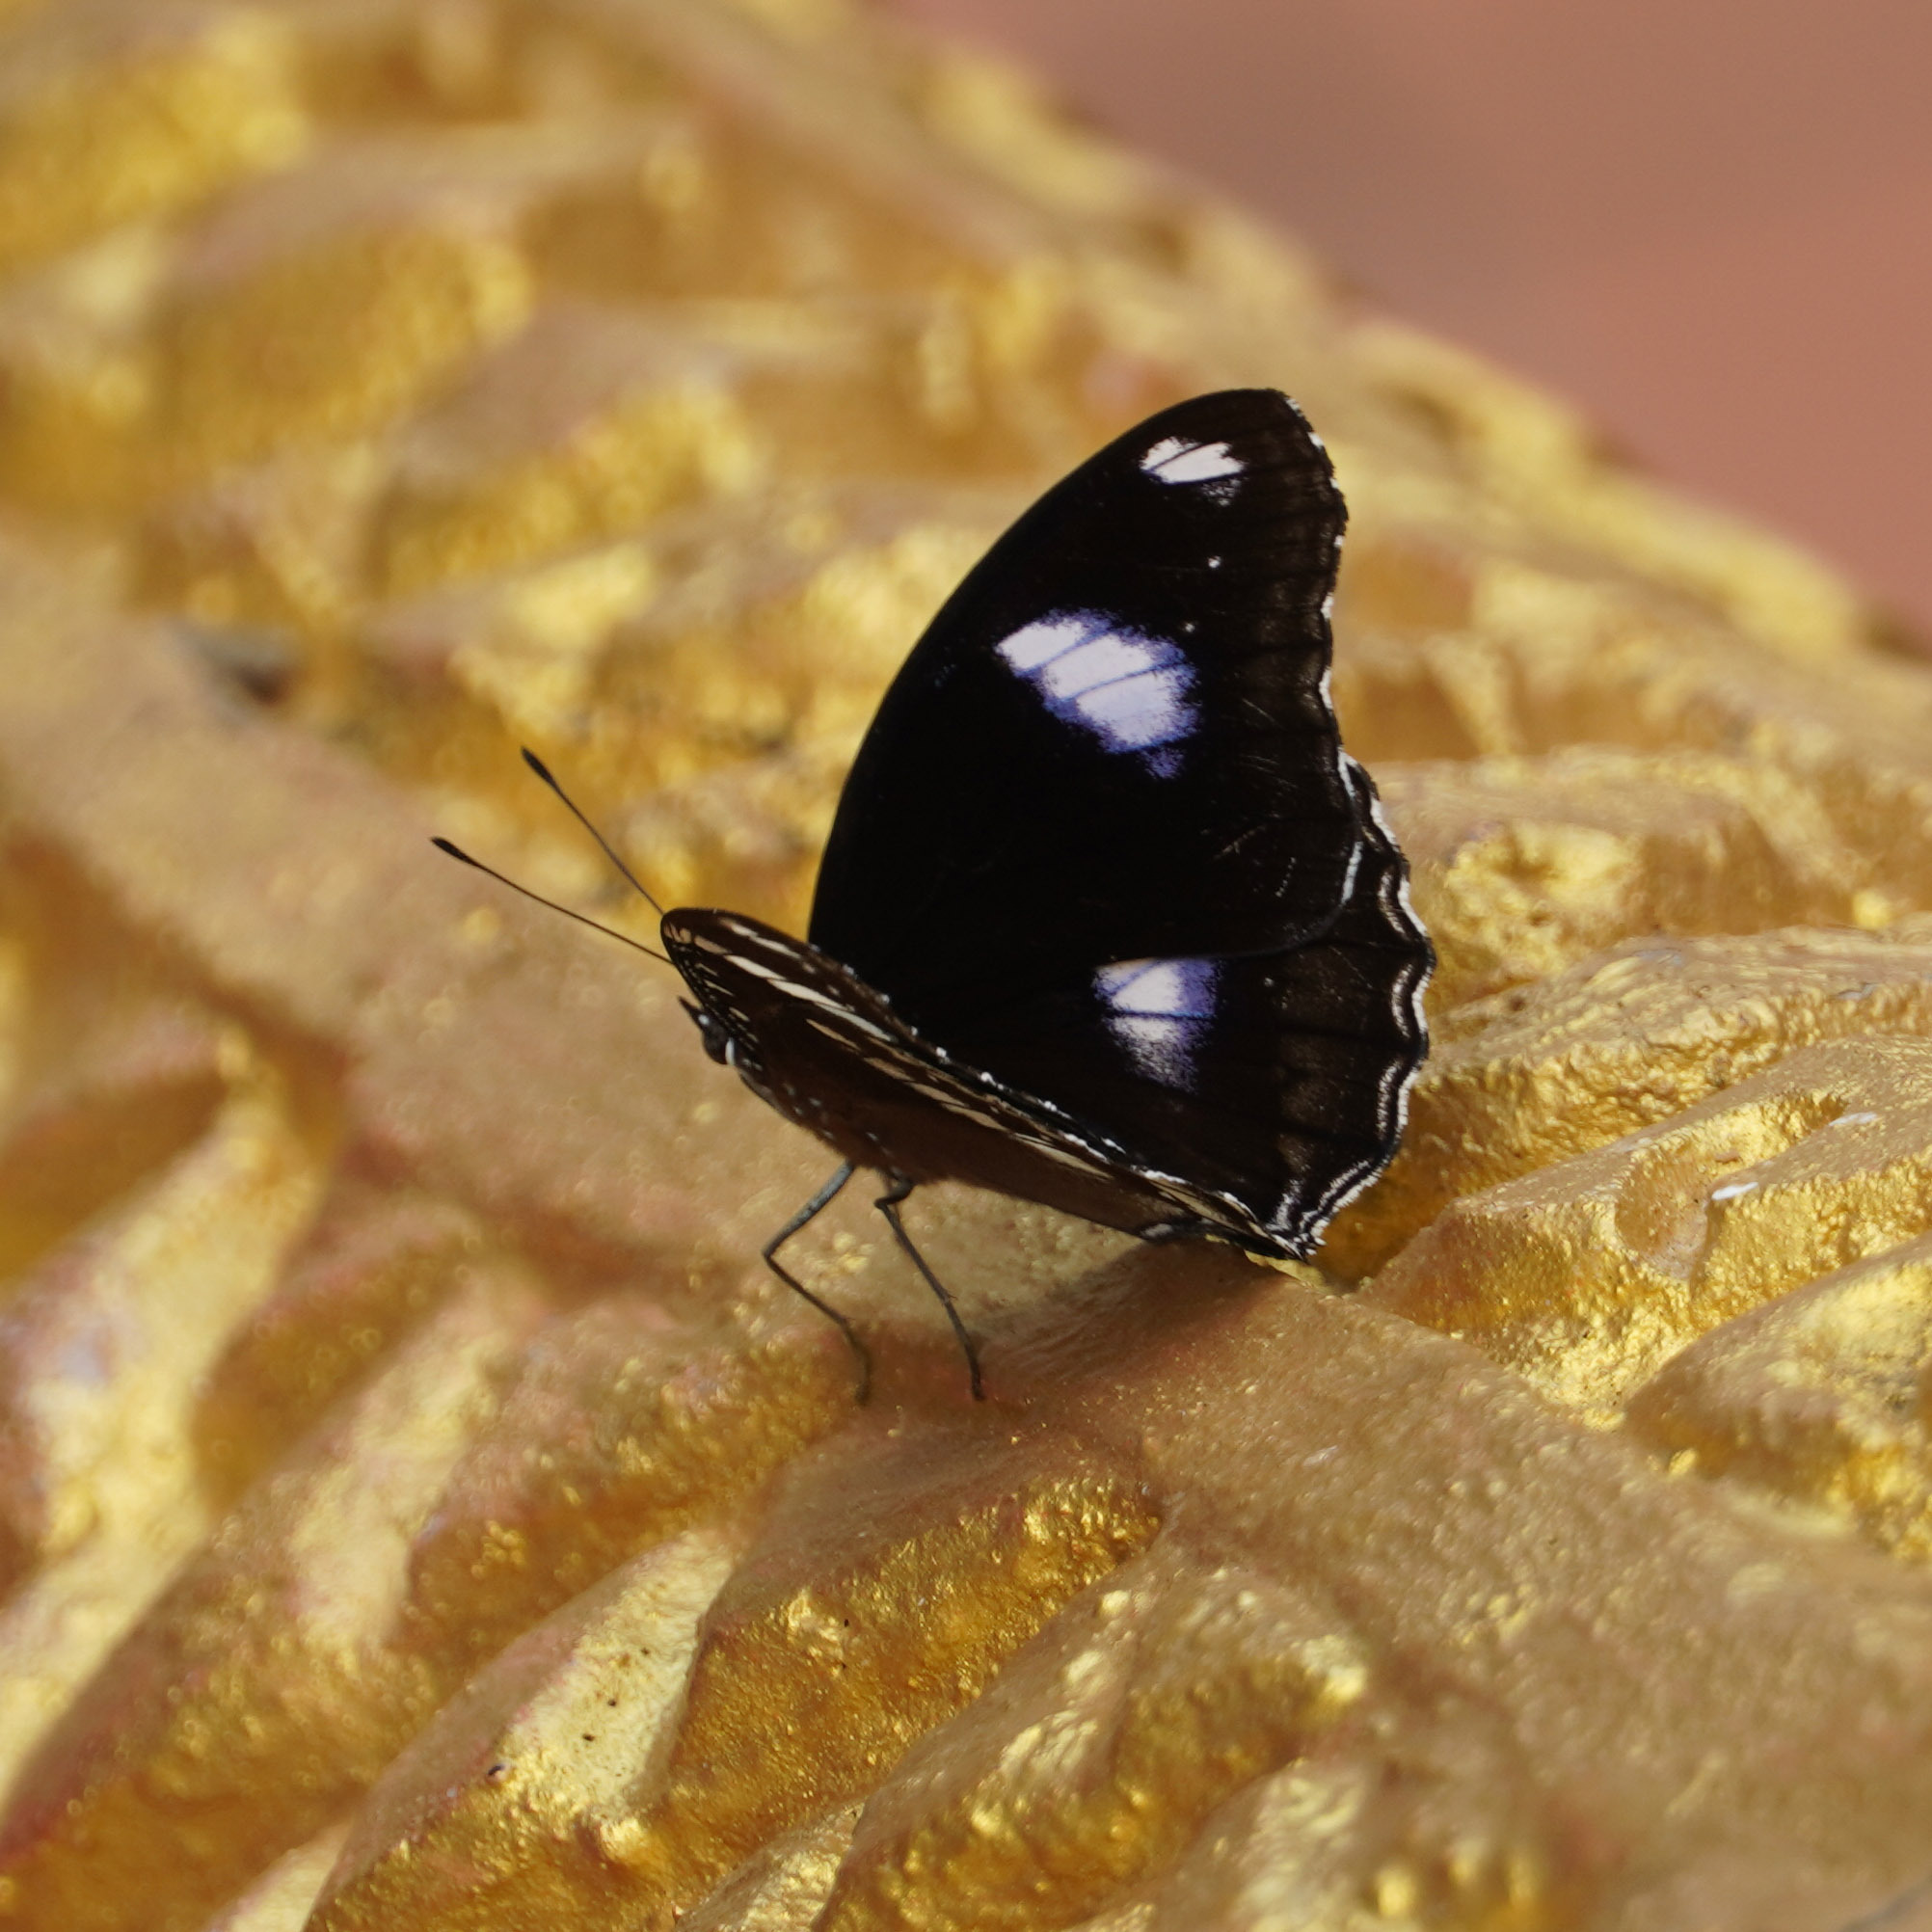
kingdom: Animalia
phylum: Arthropoda
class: Insecta
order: Lepidoptera
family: Nymphalidae
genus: Hypolimnas
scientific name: Hypolimnas bolina
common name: Great eggfly
